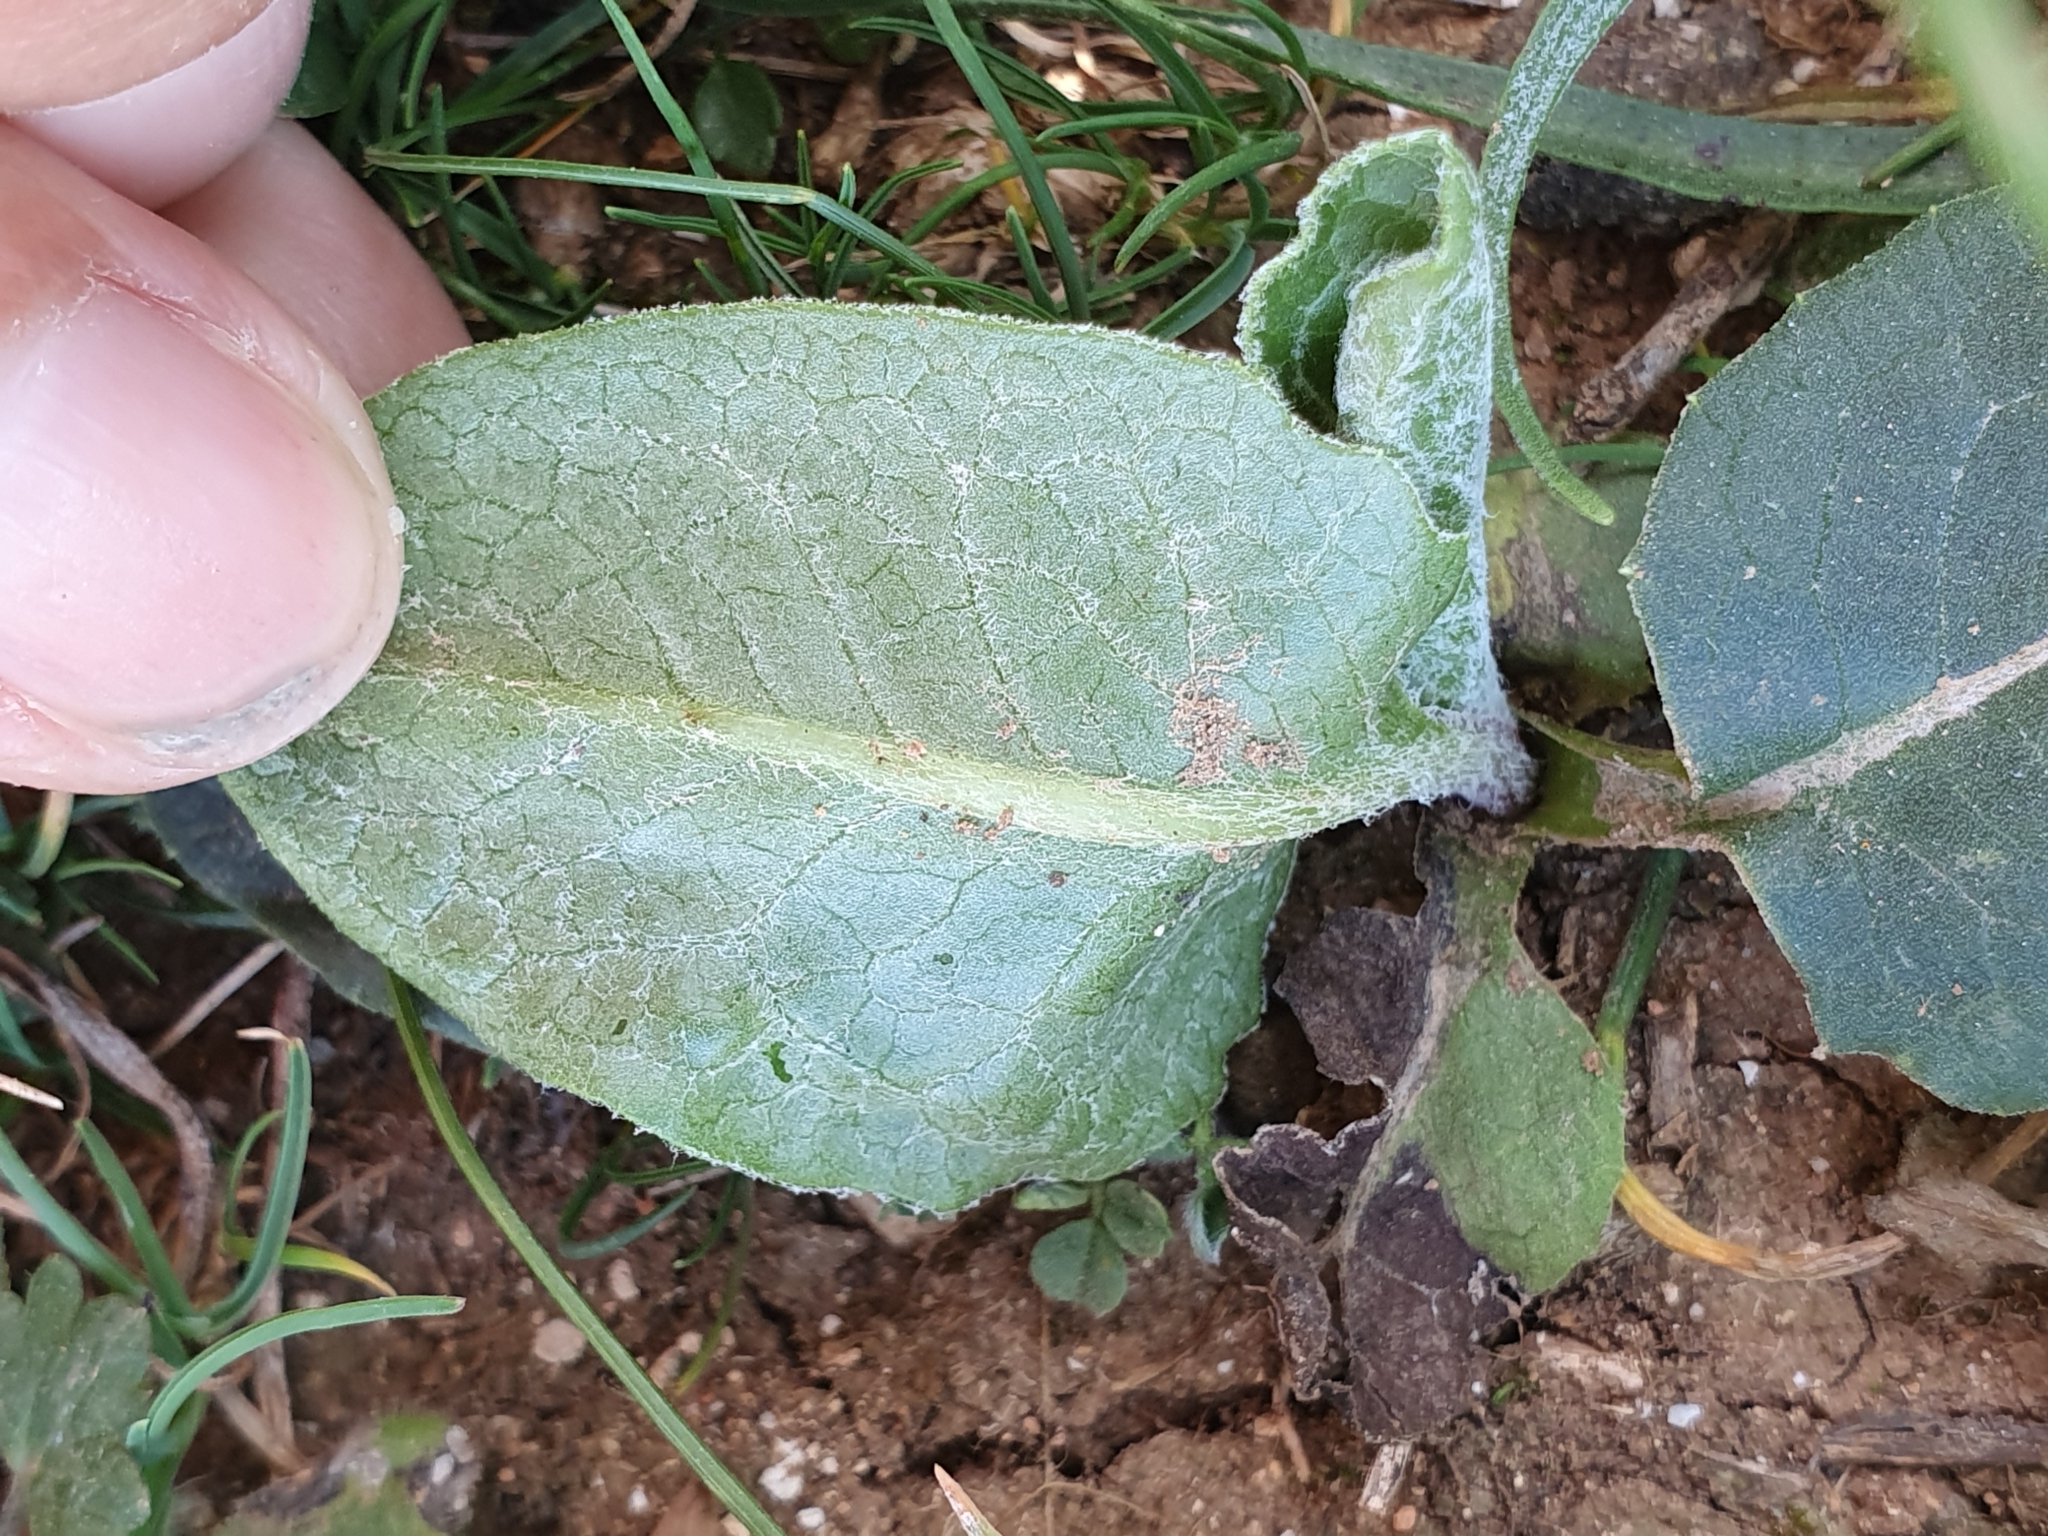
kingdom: Plantae
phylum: Tracheophyta
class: Magnoliopsida
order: Asterales
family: Asteraceae
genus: Klasea
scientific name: Klasea pinnatifida
